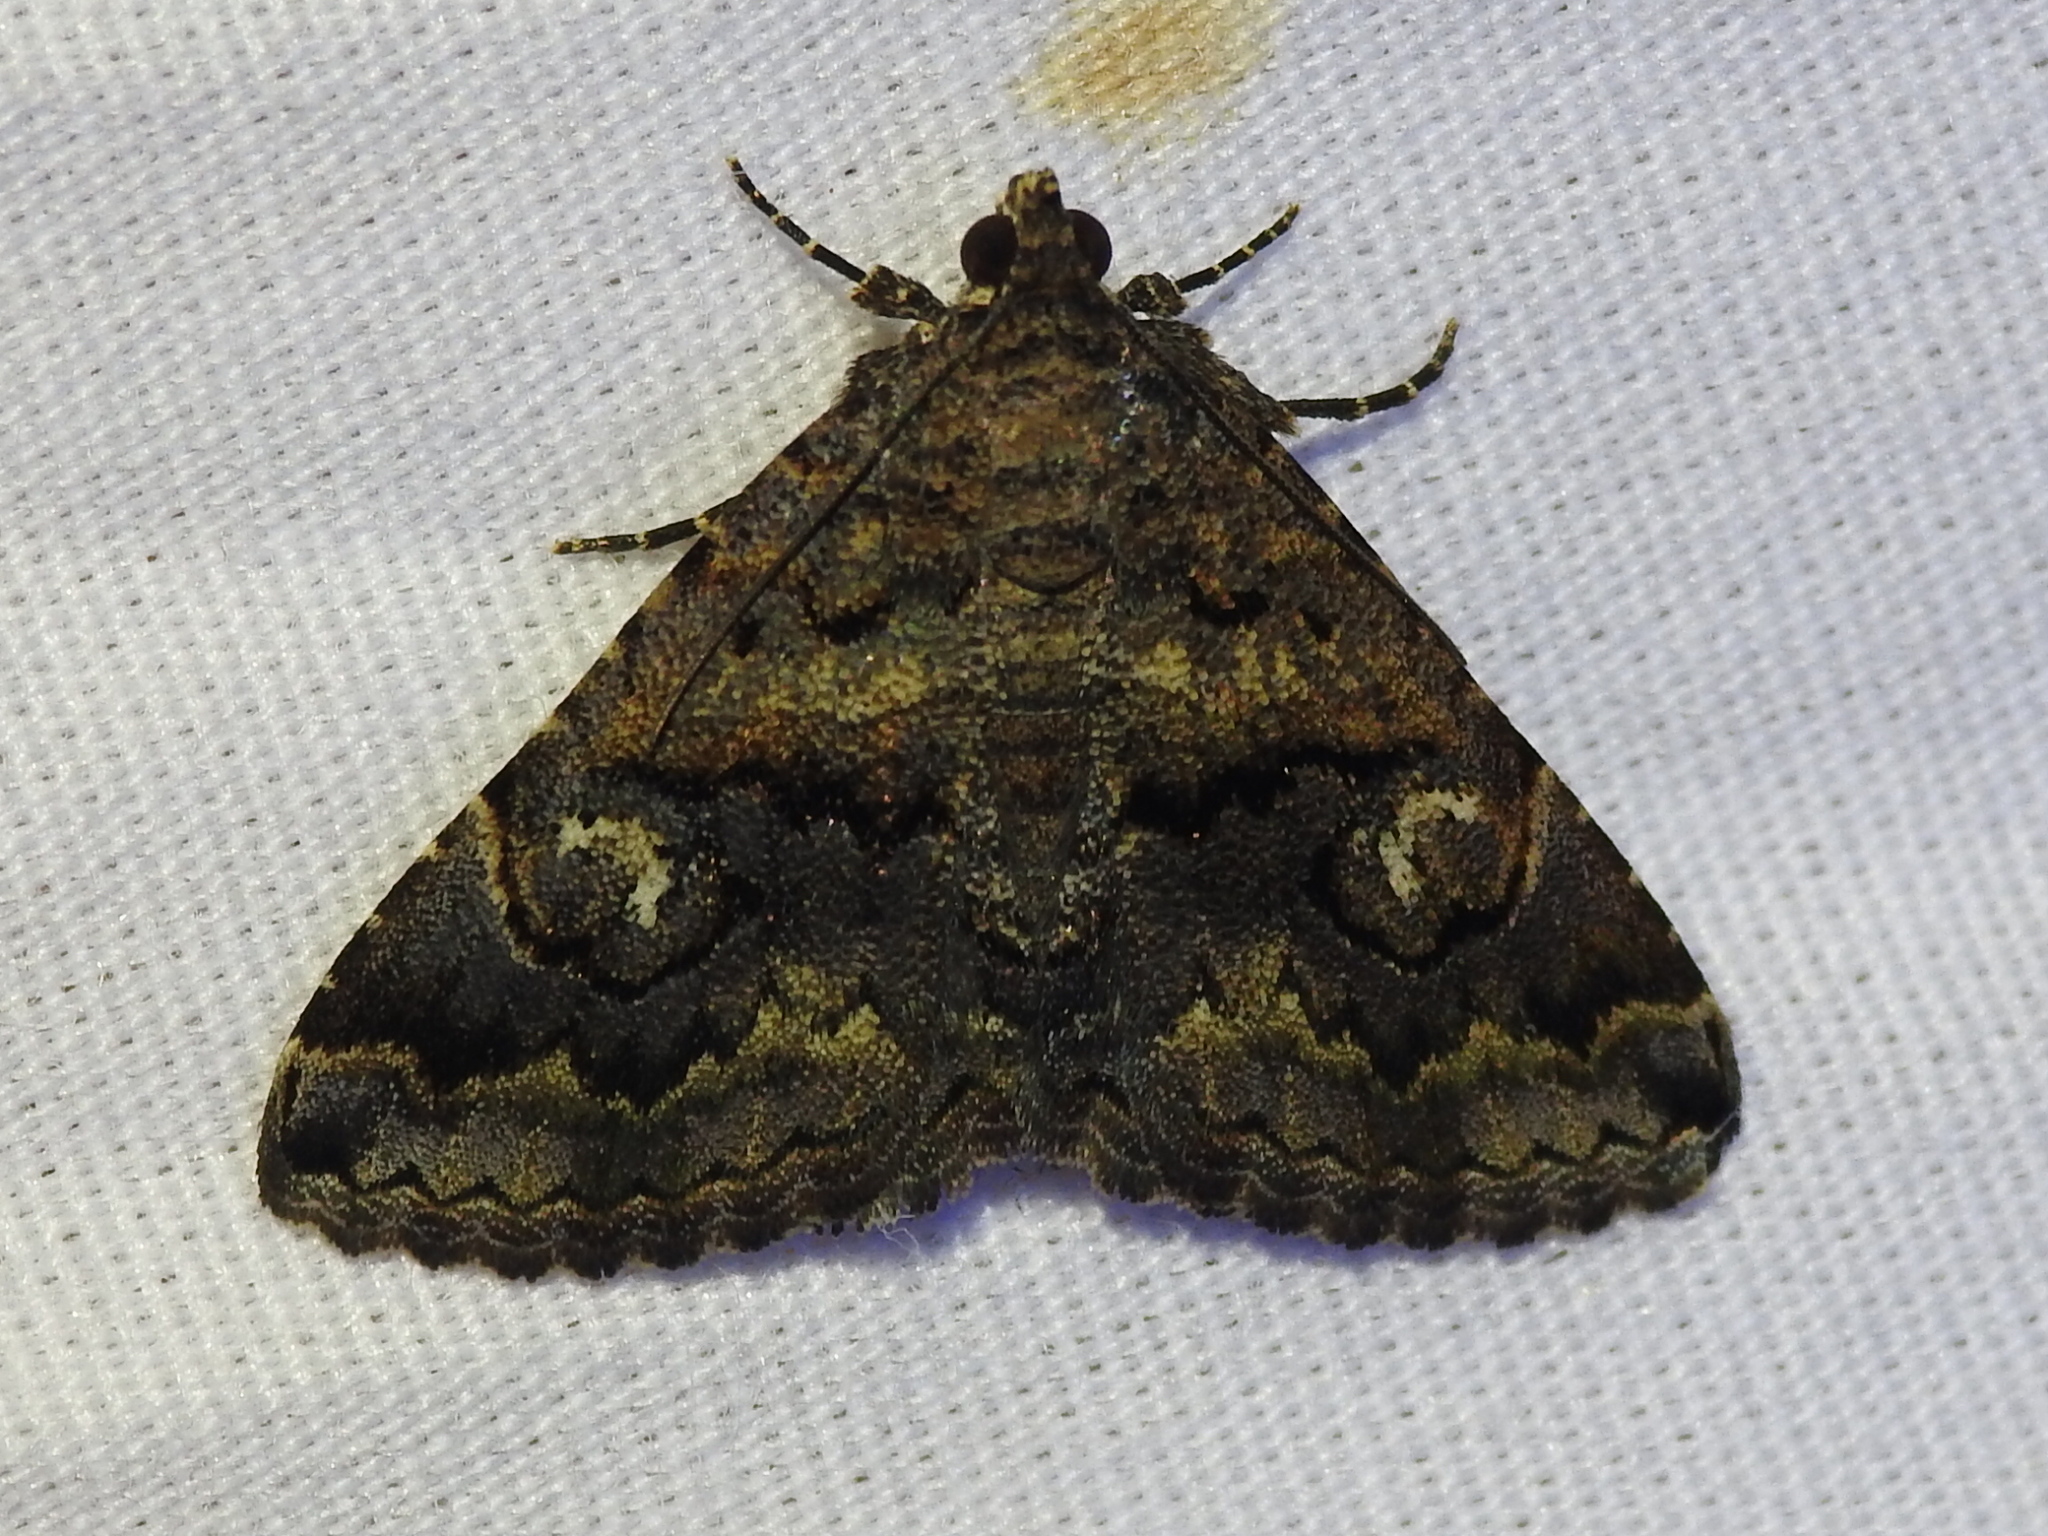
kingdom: Animalia
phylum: Arthropoda
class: Insecta
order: Lepidoptera
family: Erebidae
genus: Toxonprucha
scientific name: Toxonprucha excavata
